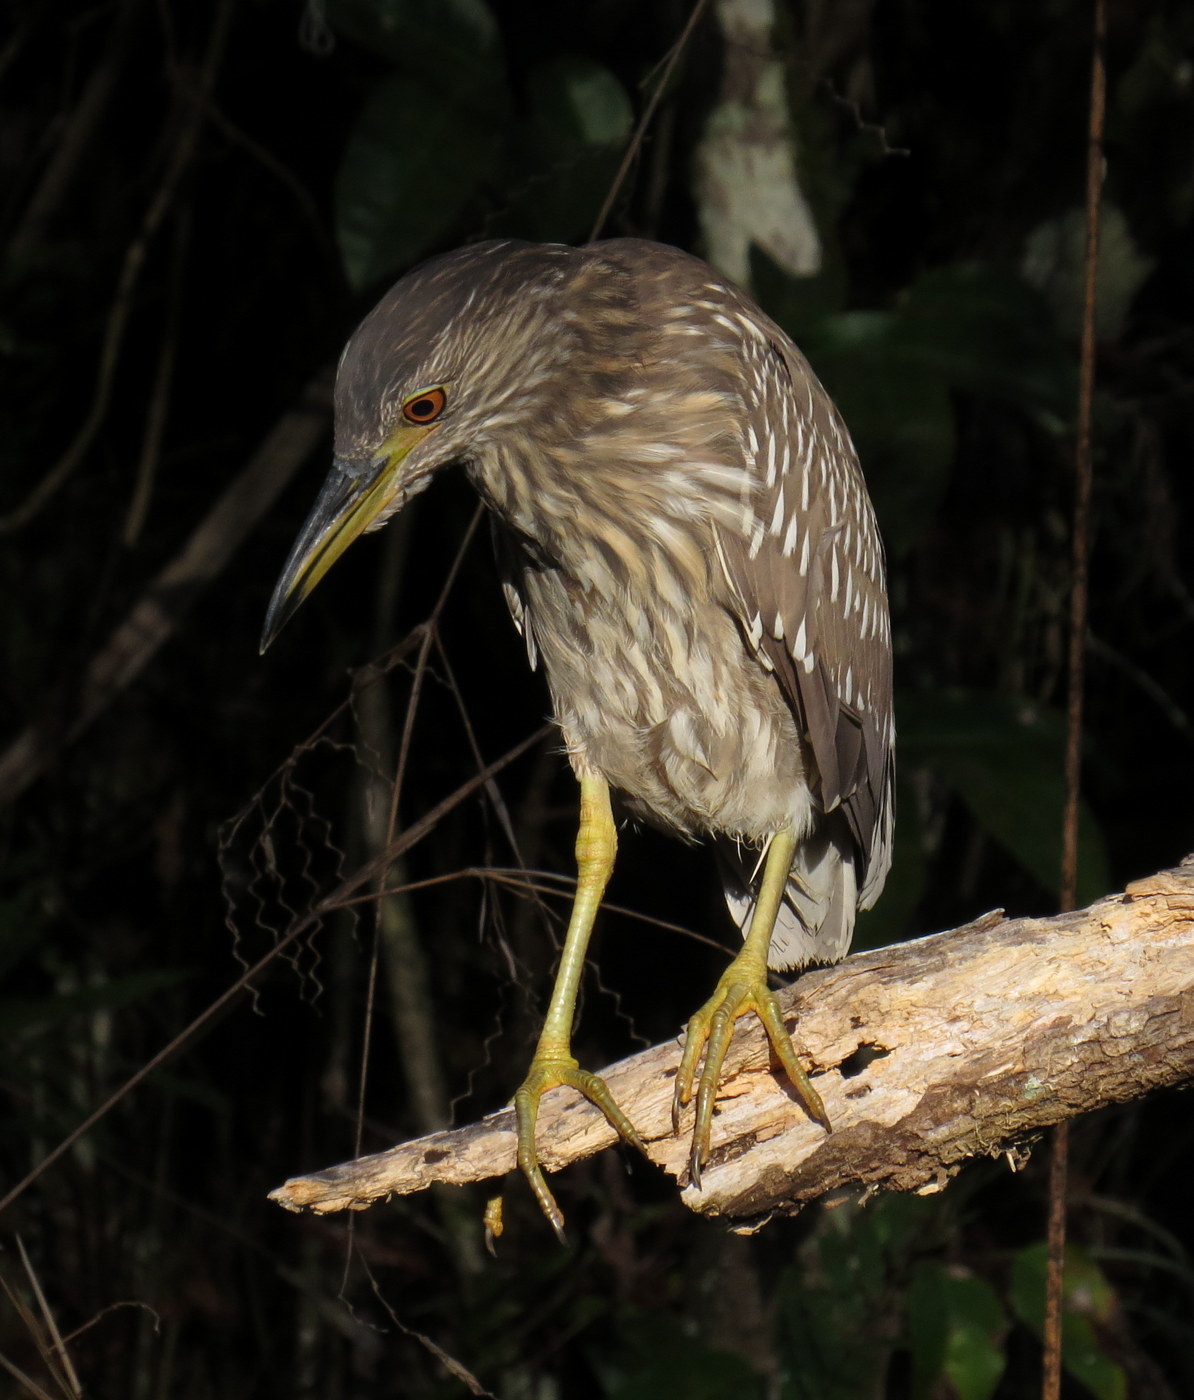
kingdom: Animalia
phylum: Chordata
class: Aves
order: Pelecaniformes
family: Ardeidae
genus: Nycticorax
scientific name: Nycticorax nycticorax
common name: Black-crowned night heron
